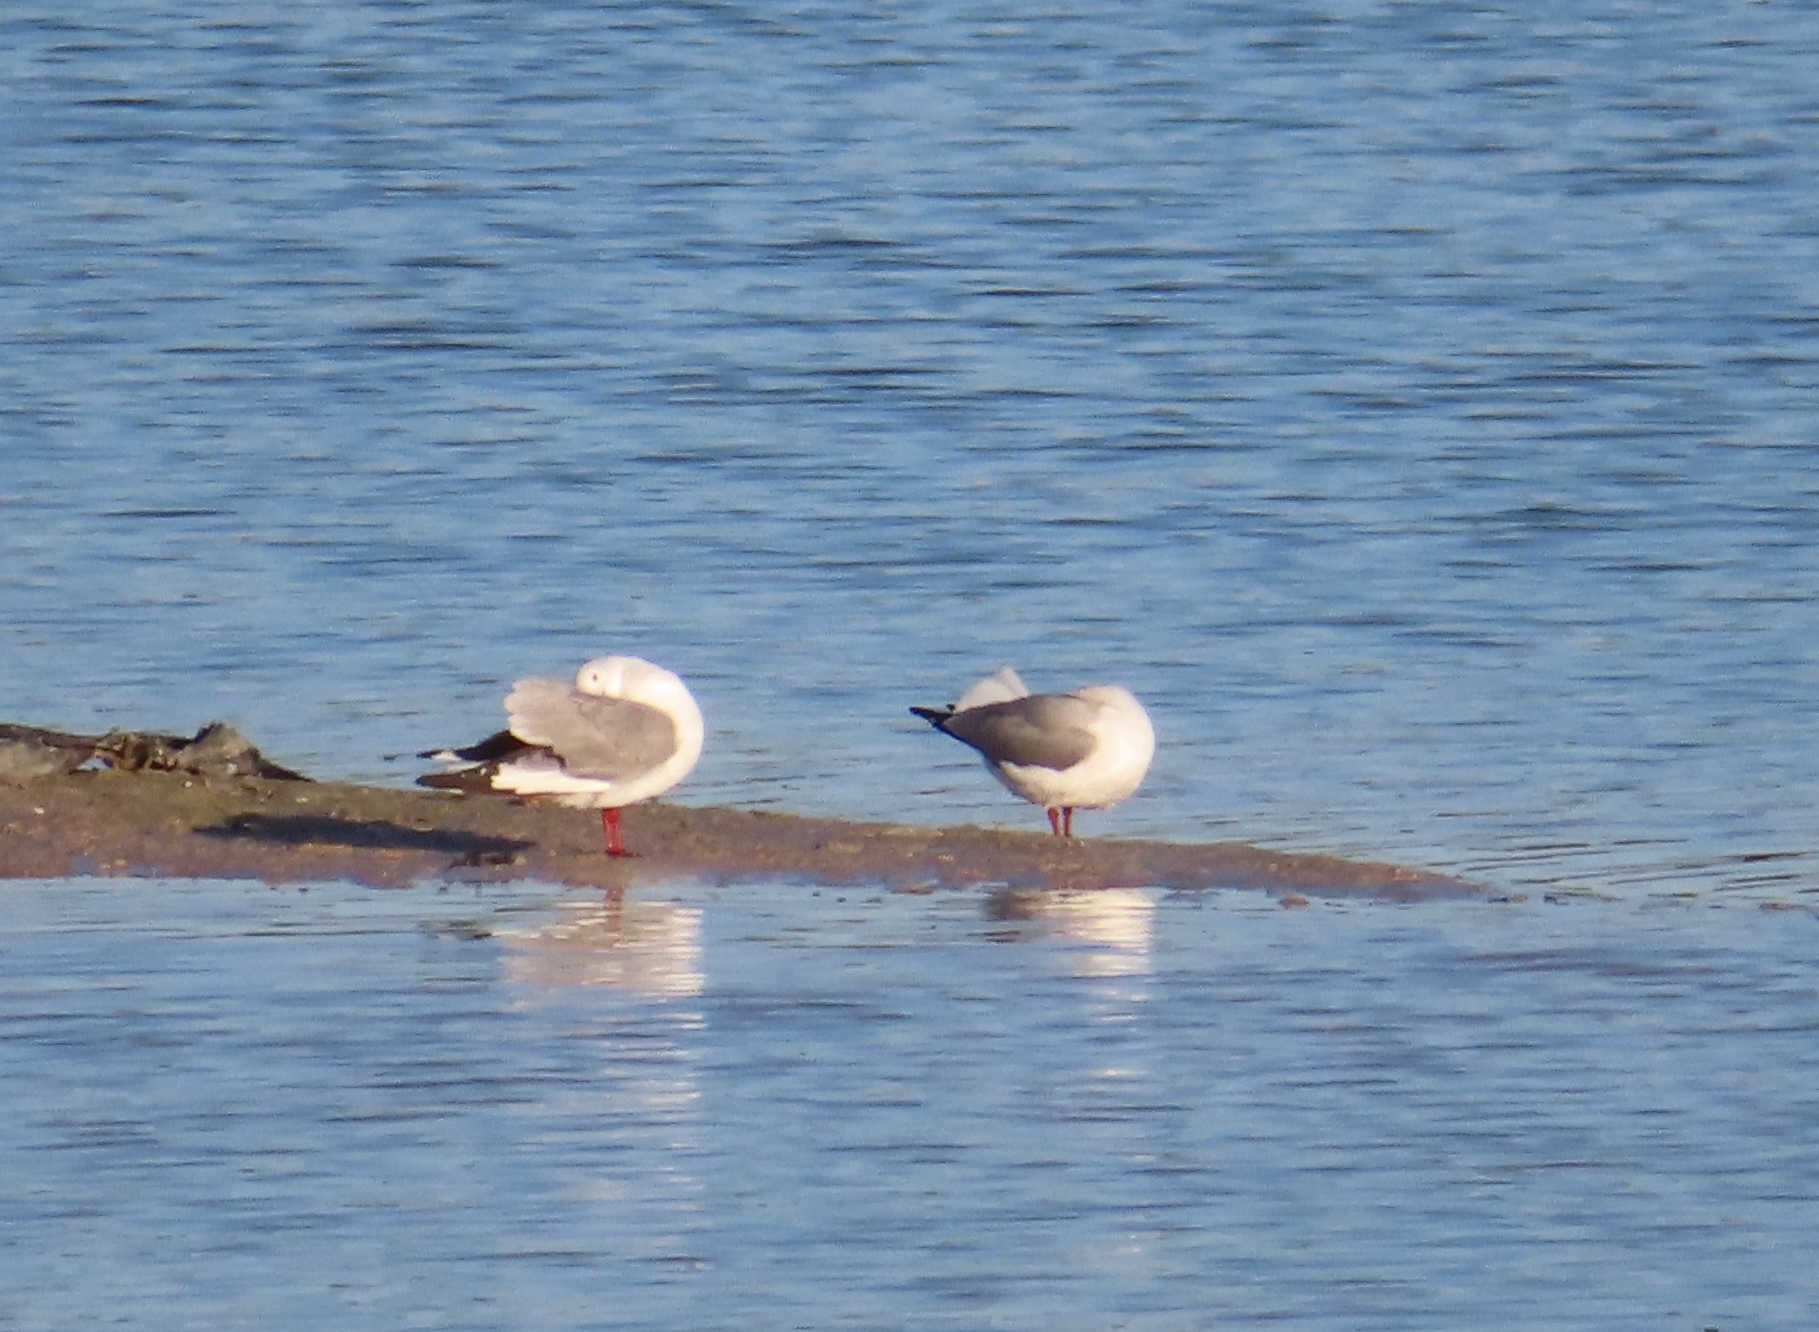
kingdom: Animalia
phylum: Chordata
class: Aves
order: Charadriiformes
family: Laridae
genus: Chroicocephalus
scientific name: Chroicocephalus hartlaubii
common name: Hartlaub's gull
